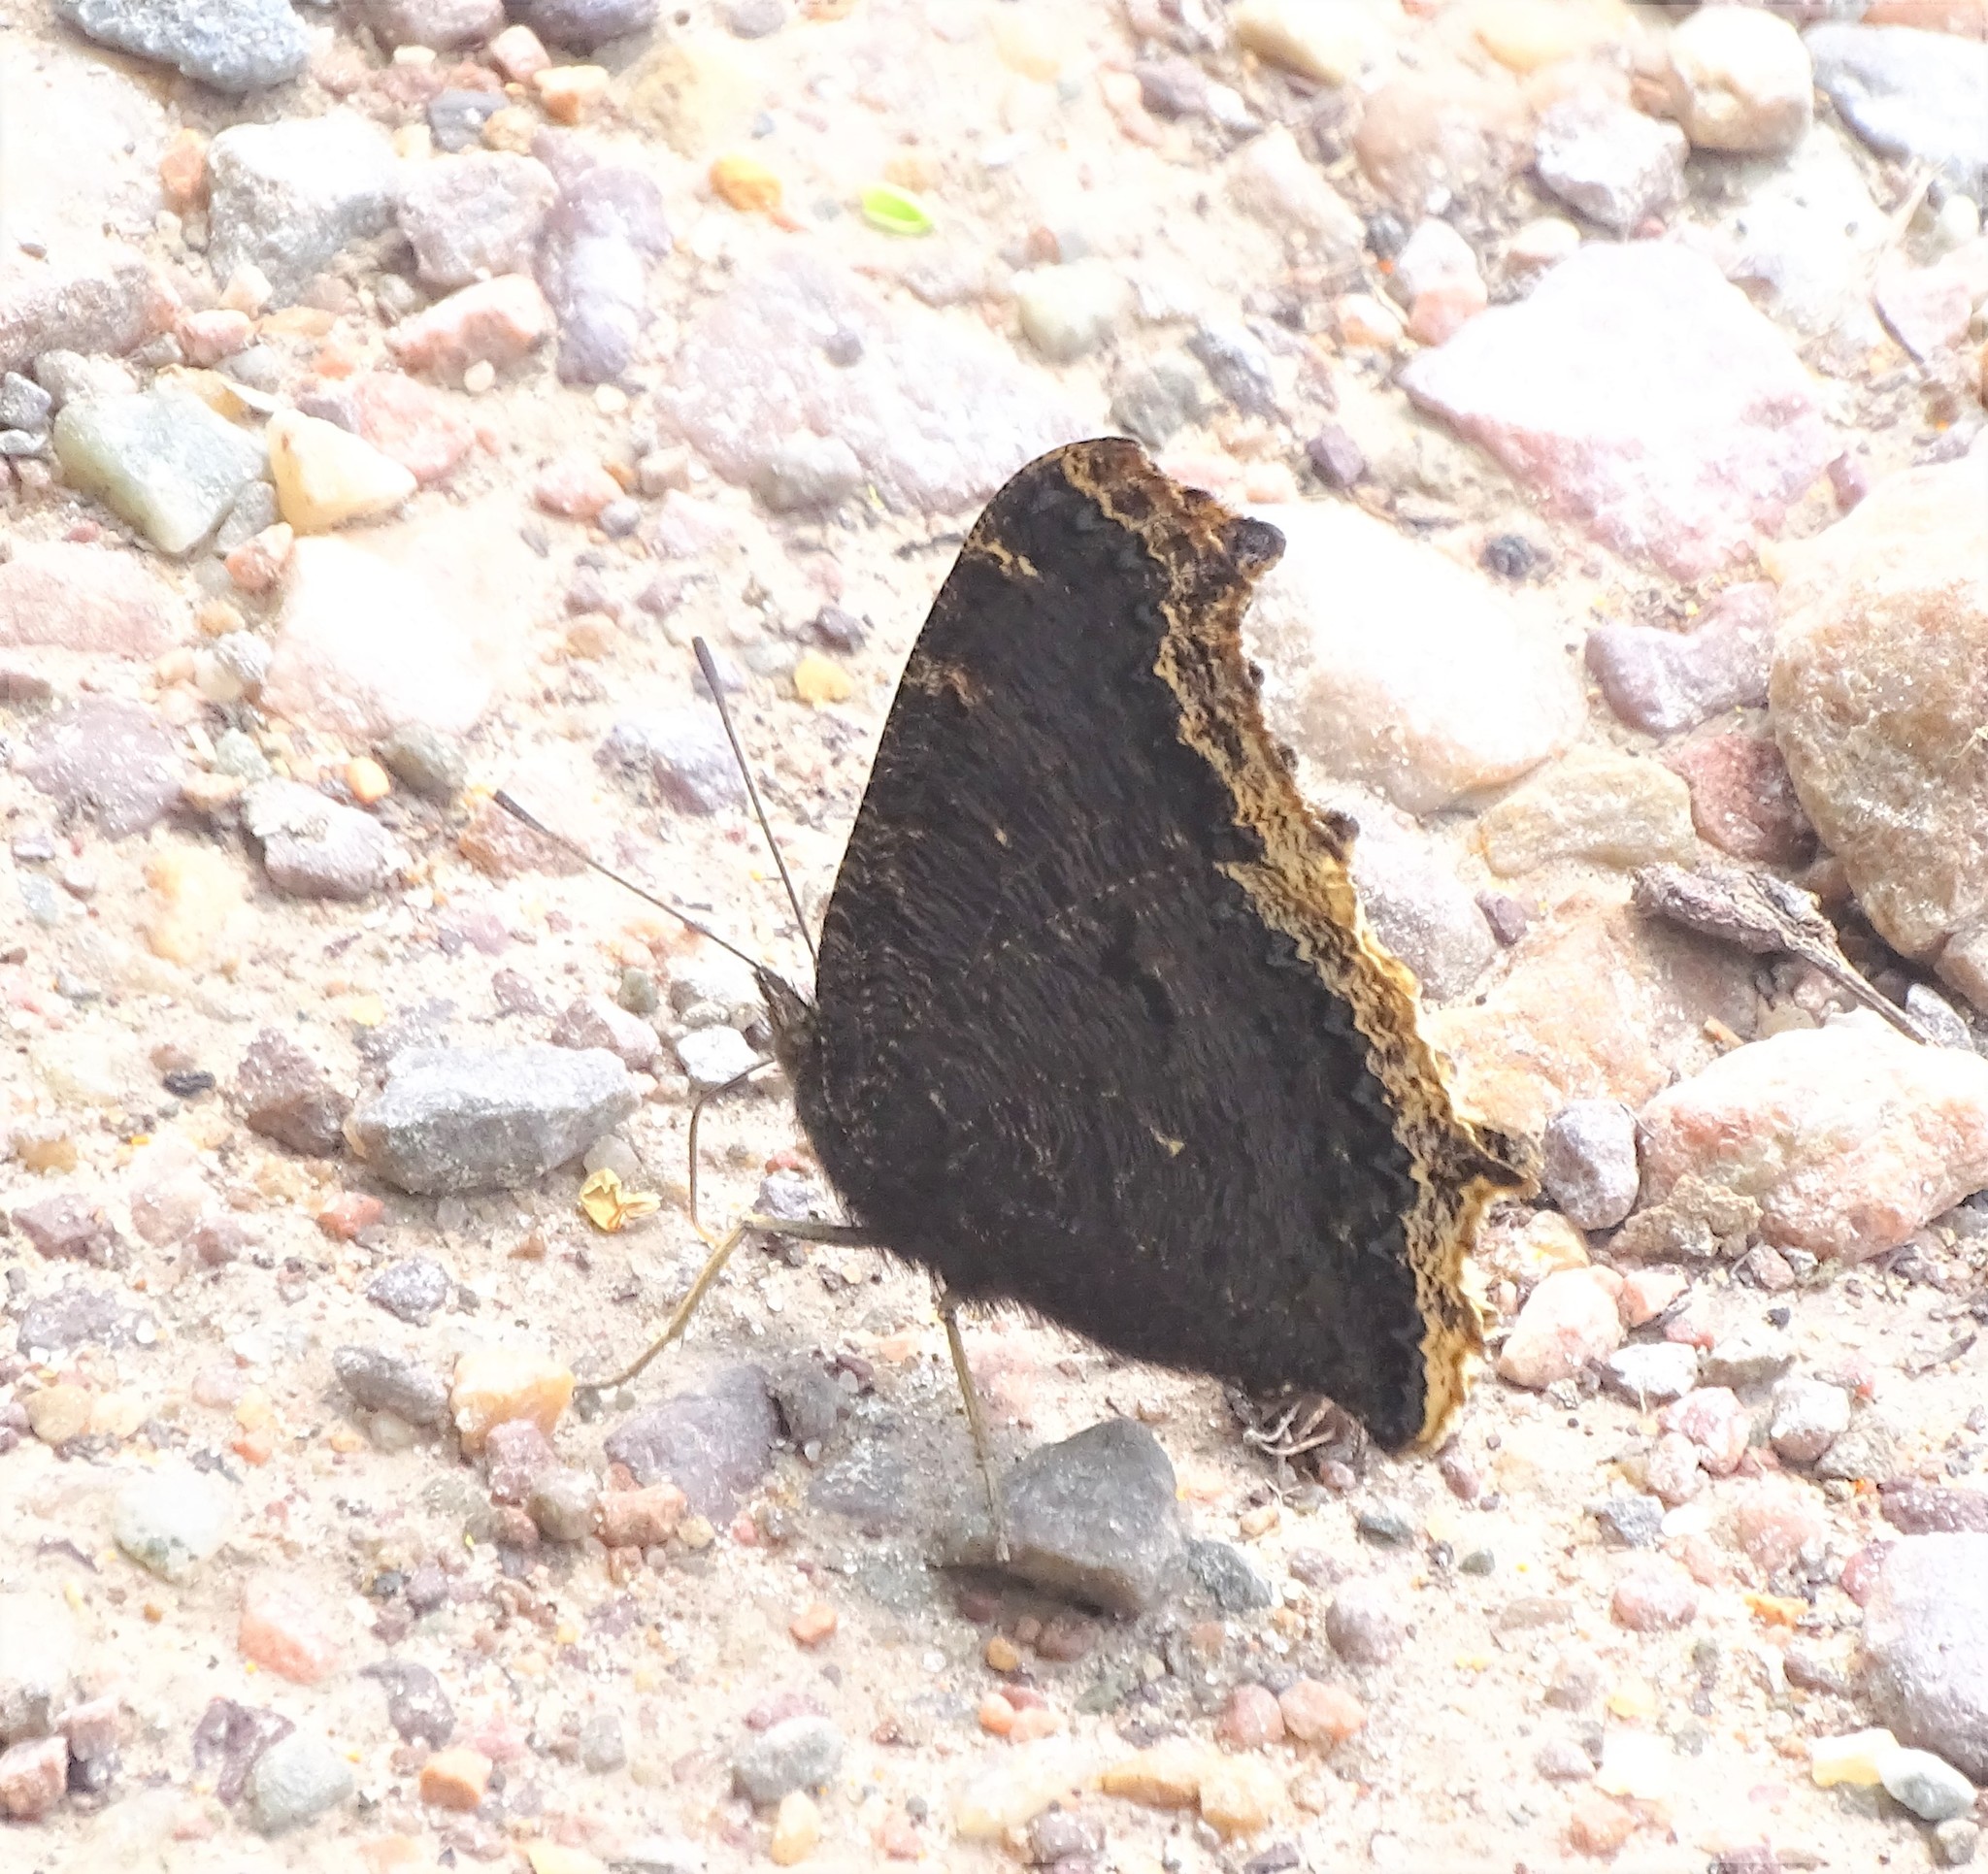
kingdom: Animalia
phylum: Arthropoda
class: Insecta
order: Lepidoptera
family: Nymphalidae
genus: Nymphalis
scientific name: Nymphalis antiopa
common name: Camberwell beauty
